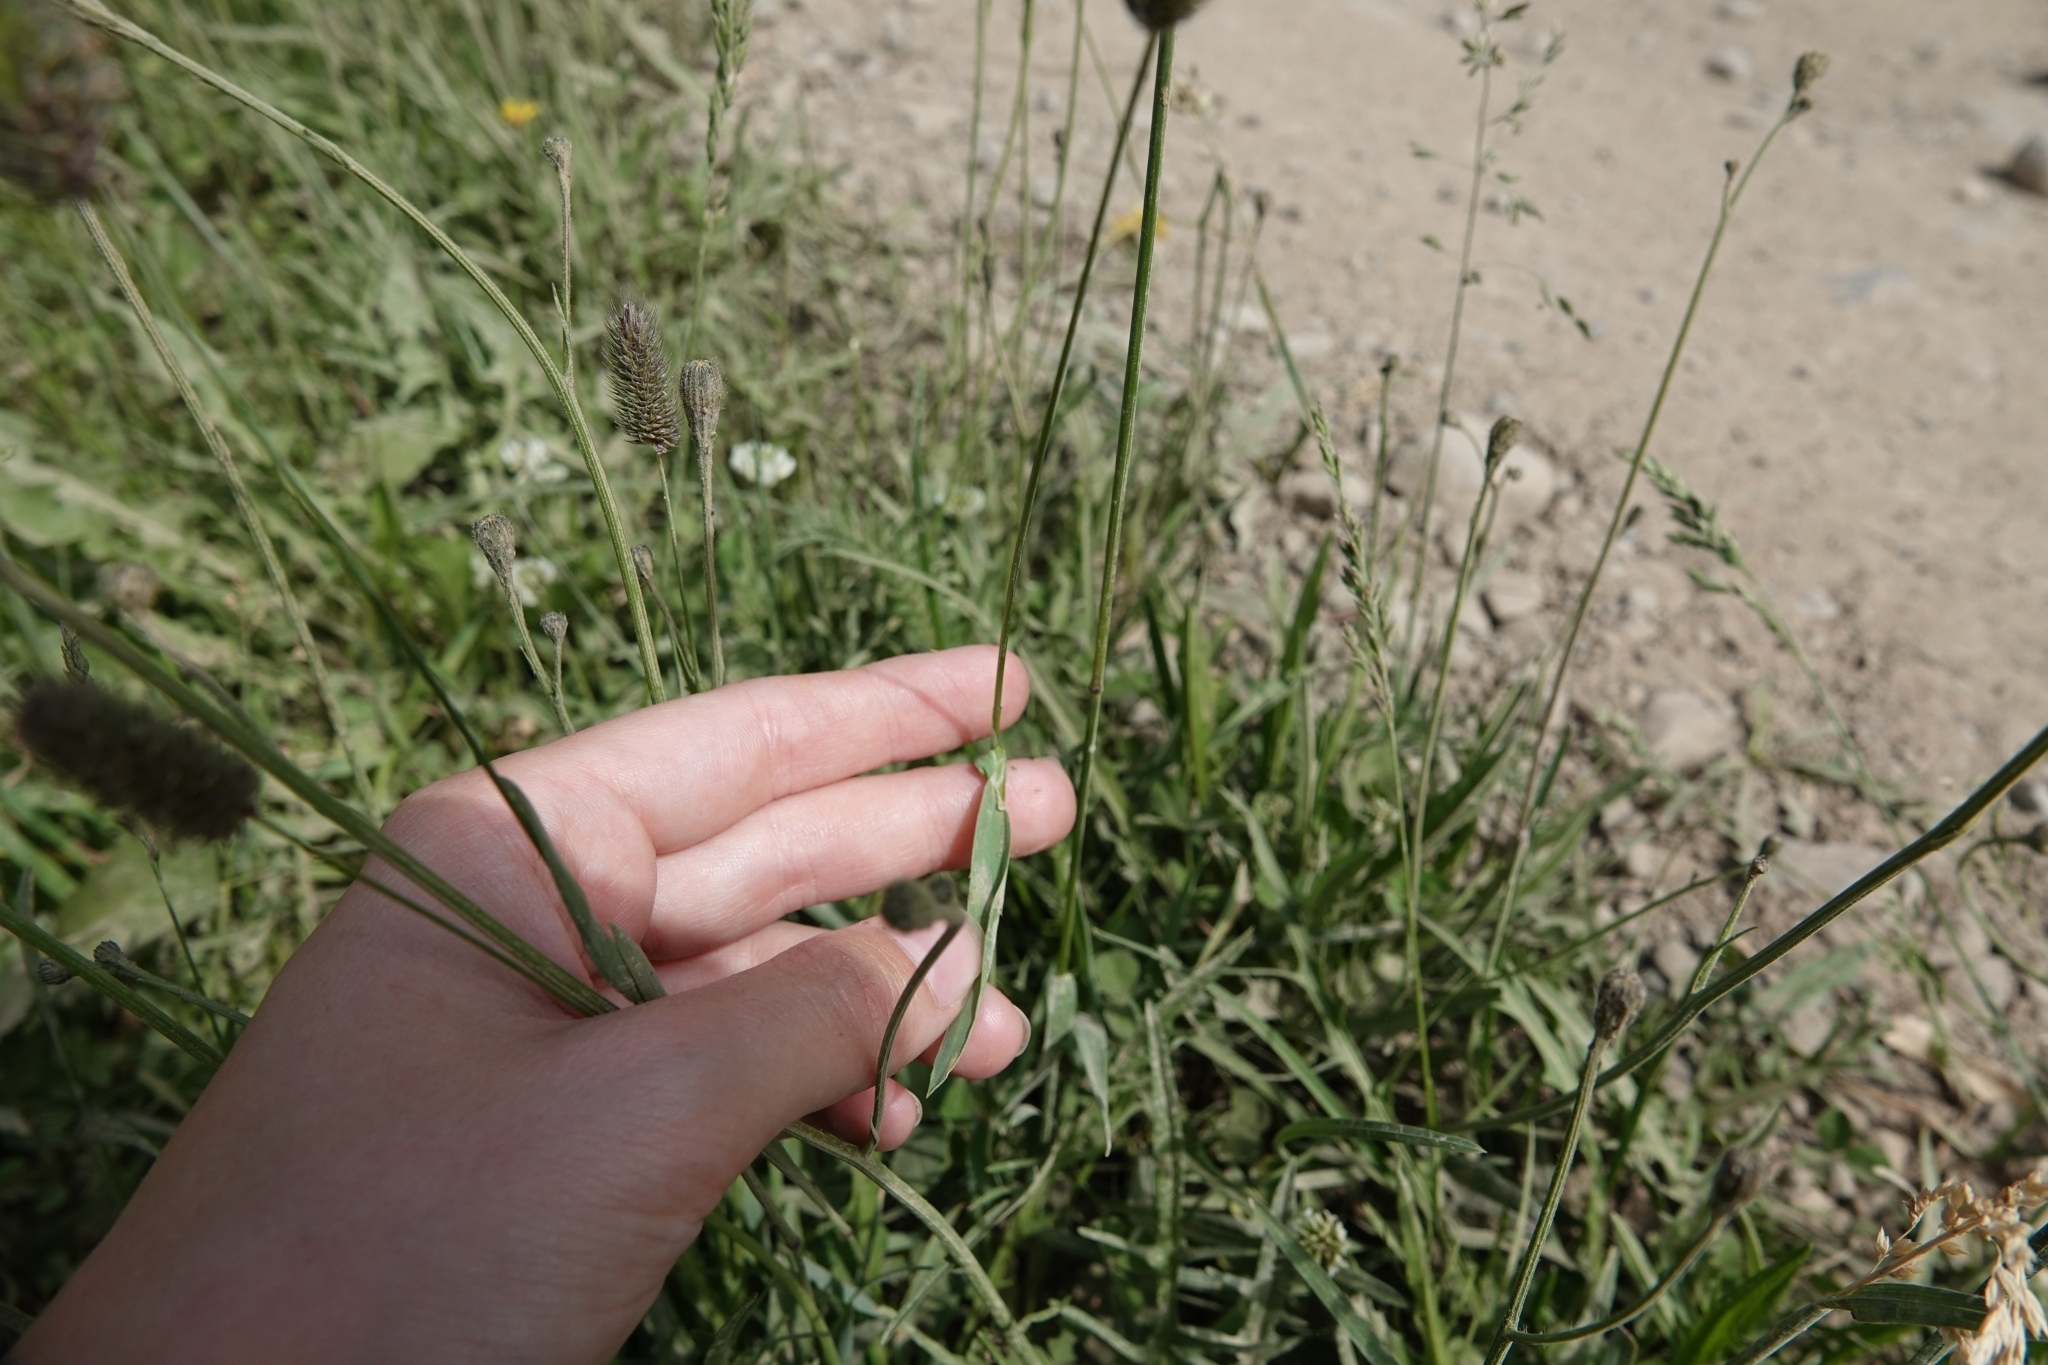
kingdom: Plantae
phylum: Tracheophyta
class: Liliopsida
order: Poales
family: Poaceae
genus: Phleum
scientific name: Phleum alpinum
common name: Alpine cat's-tail
